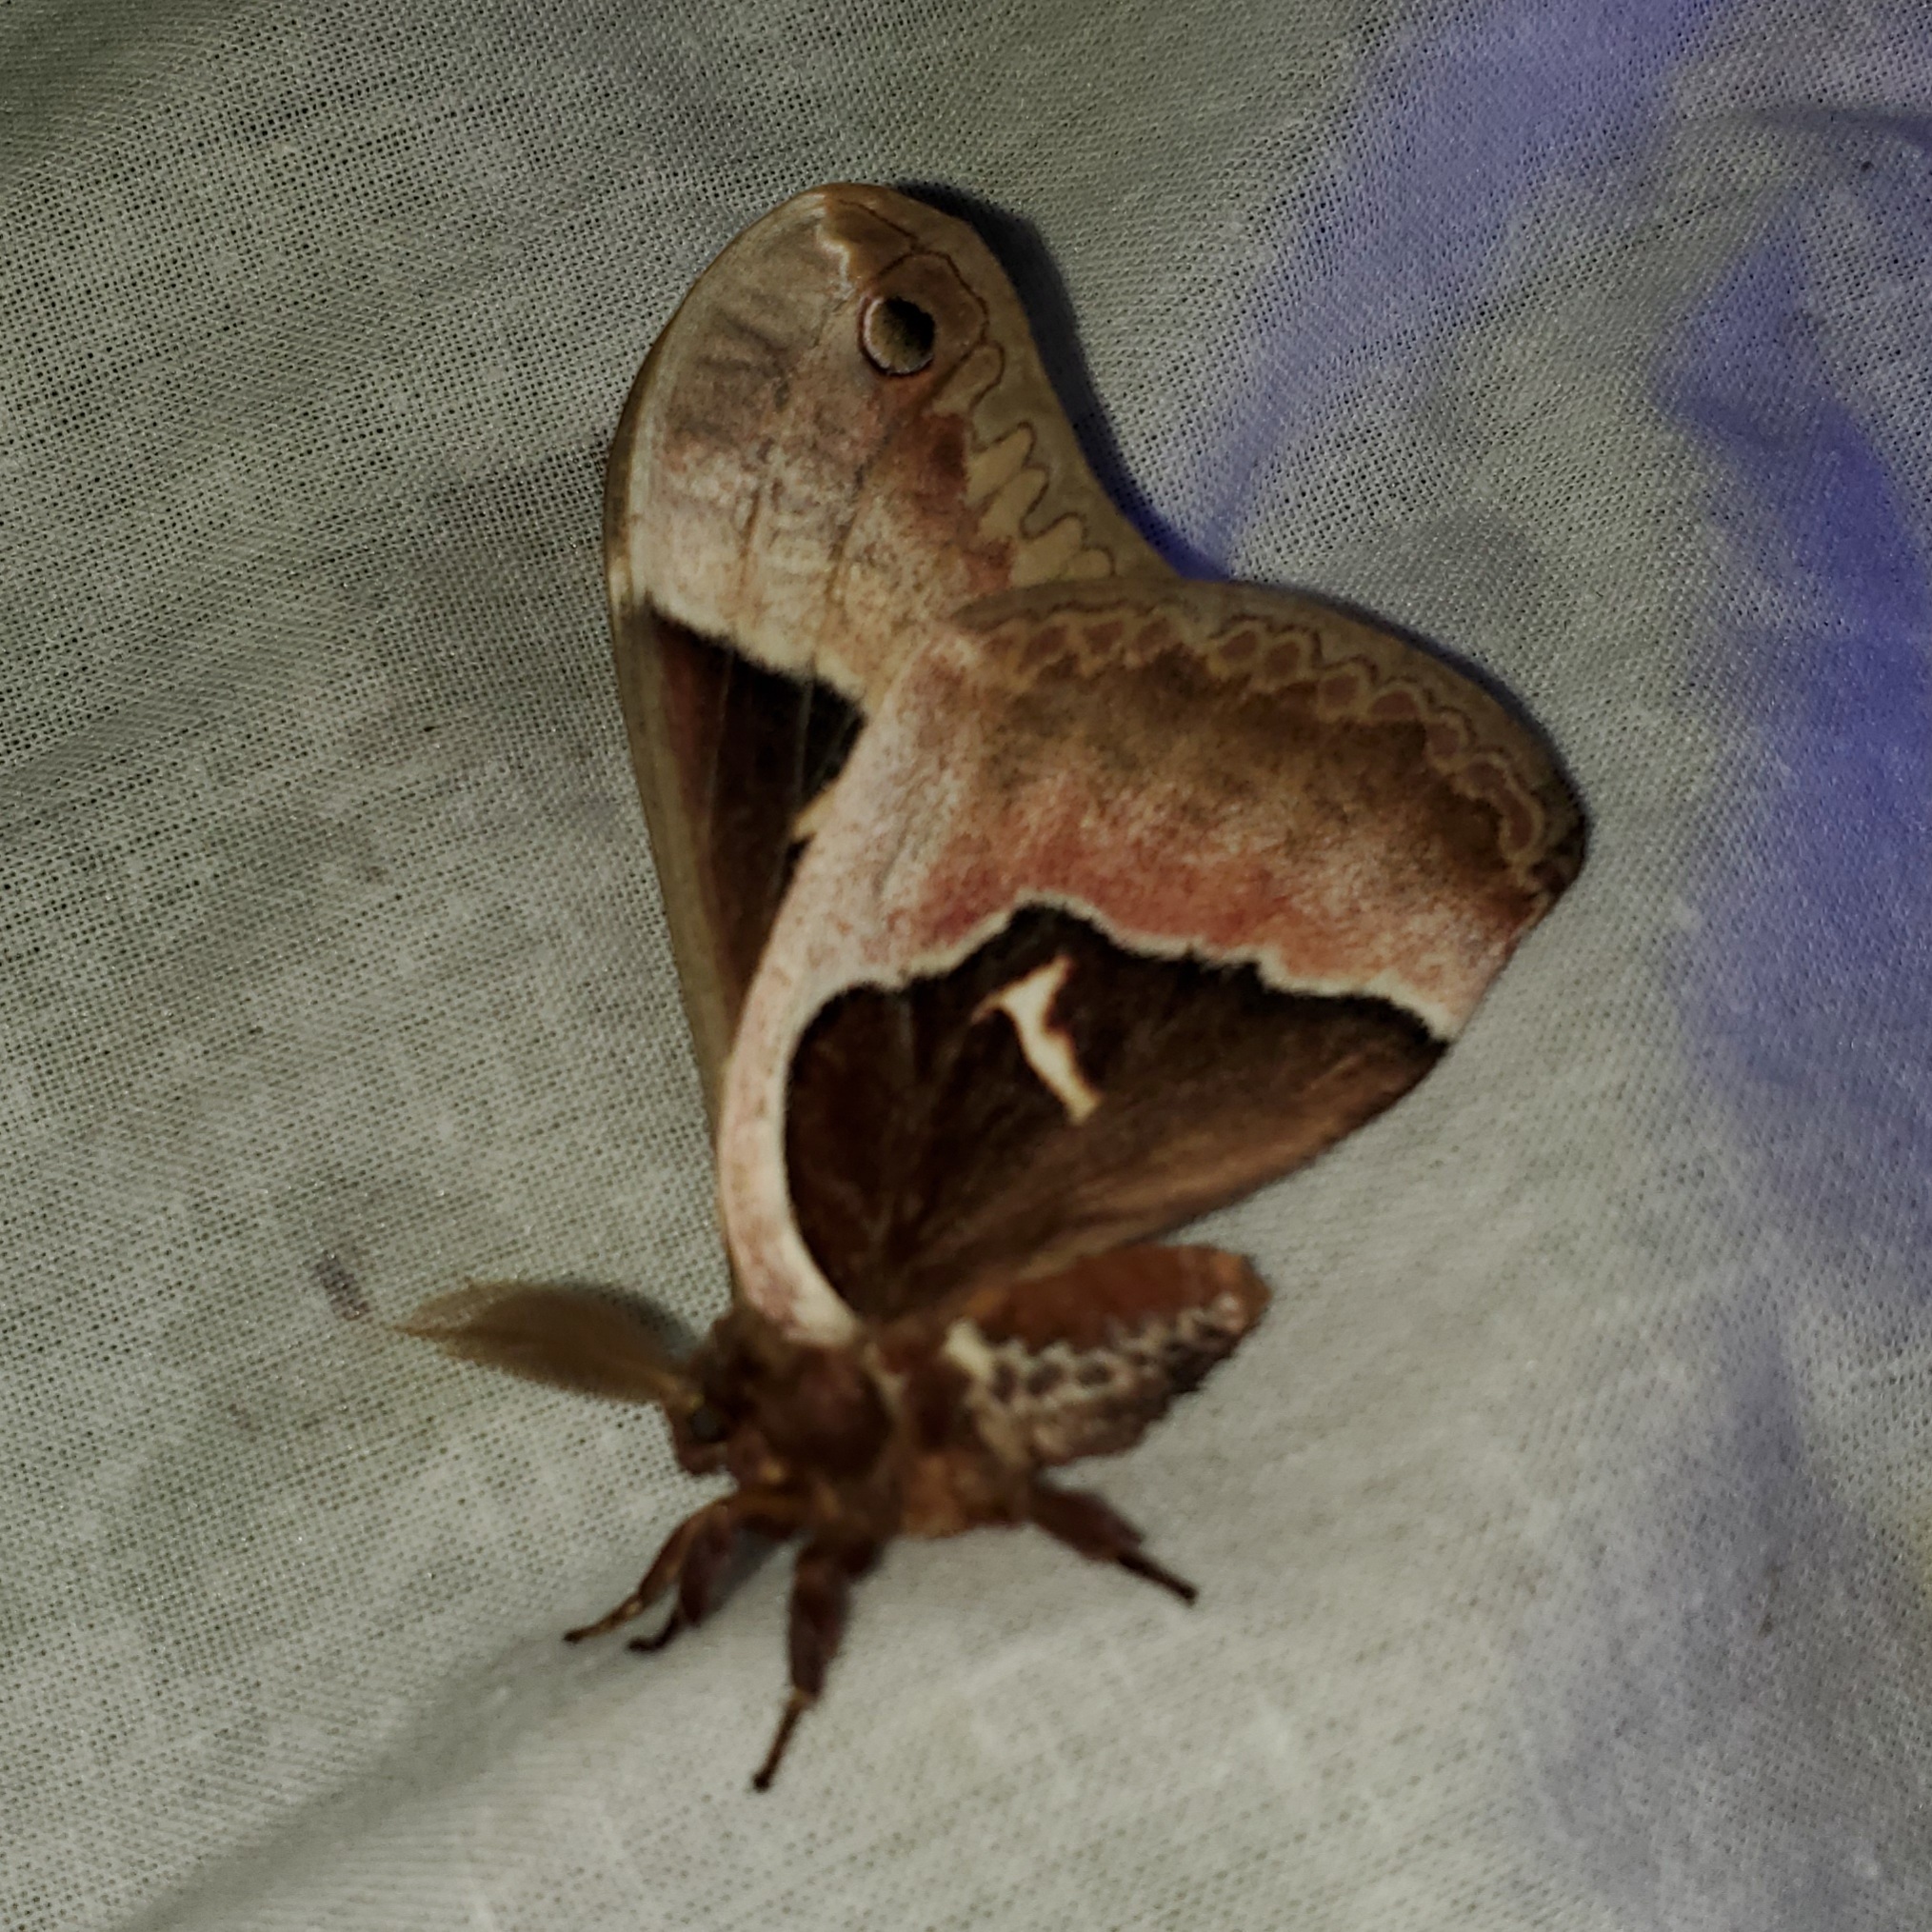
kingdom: Animalia
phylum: Arthropoda
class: Insecta
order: Lepidoptera
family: Saturniidae
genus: Callosamia
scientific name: Callosamia angulifera
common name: Tulip tree silkmoth
